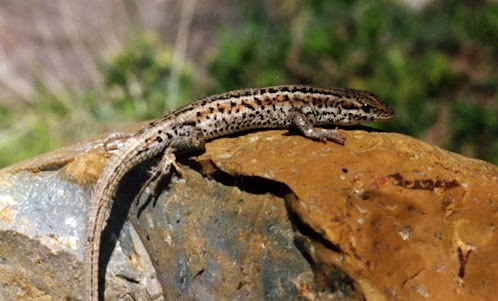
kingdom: Animalia
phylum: Chordata
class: Squamata
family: Lacertidae
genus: Ophisops
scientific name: Ophisops elegans
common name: Snake-eyed lizard
